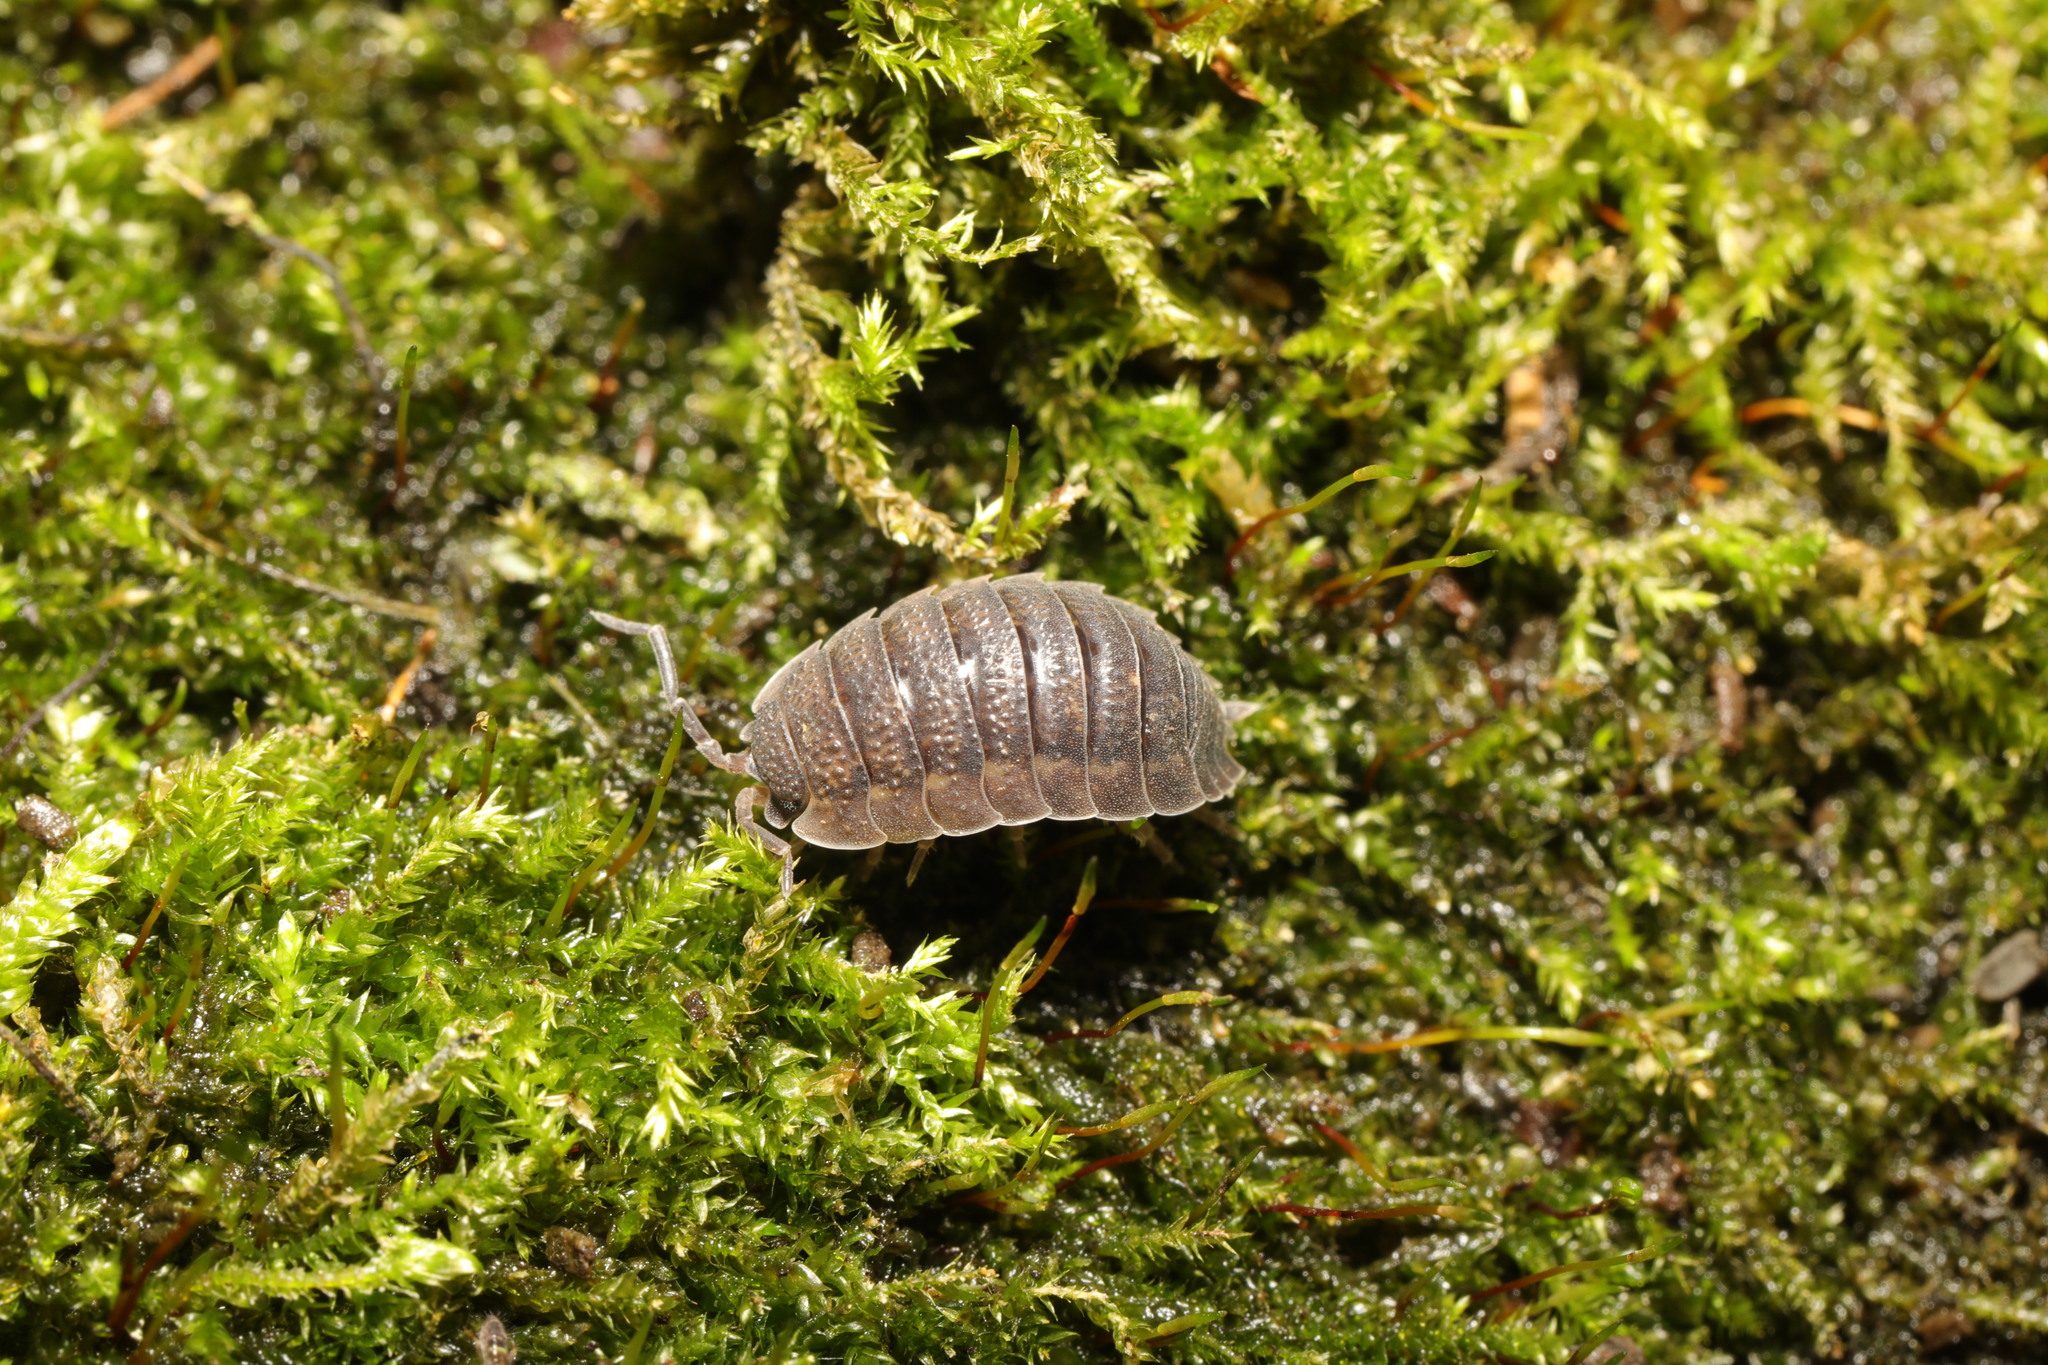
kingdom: Animalia
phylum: Arthropoda
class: Malacostraca
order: Isopoda
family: Porcellionidae
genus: Porcellio
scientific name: Porcellio scaber
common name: Common rough woodlouse
